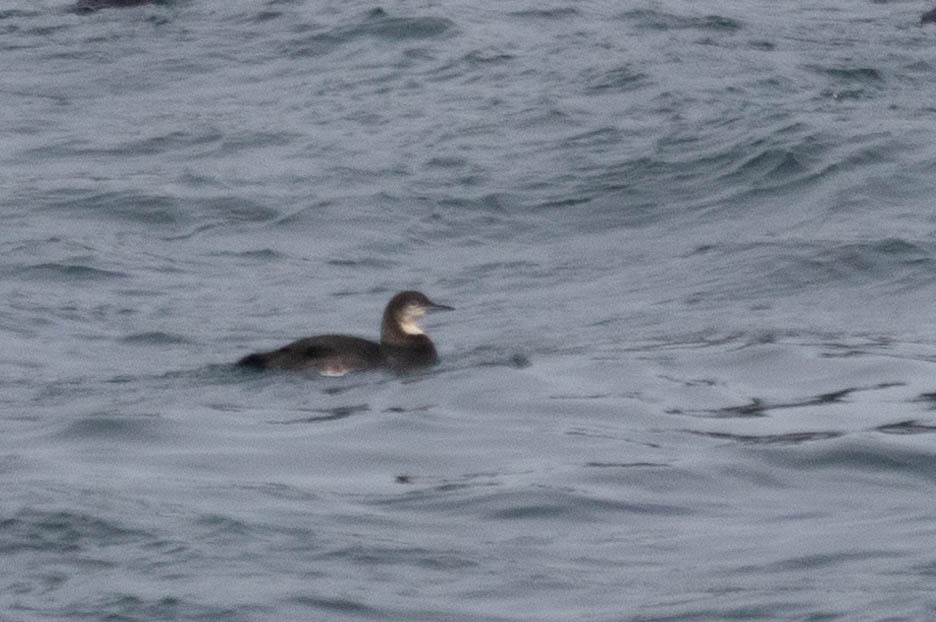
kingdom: Animalia
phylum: Chordata
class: Aves
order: Gaviiformes
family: Gaviidae
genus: Gavia
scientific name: Gavia pacifica
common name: Pacific loon
